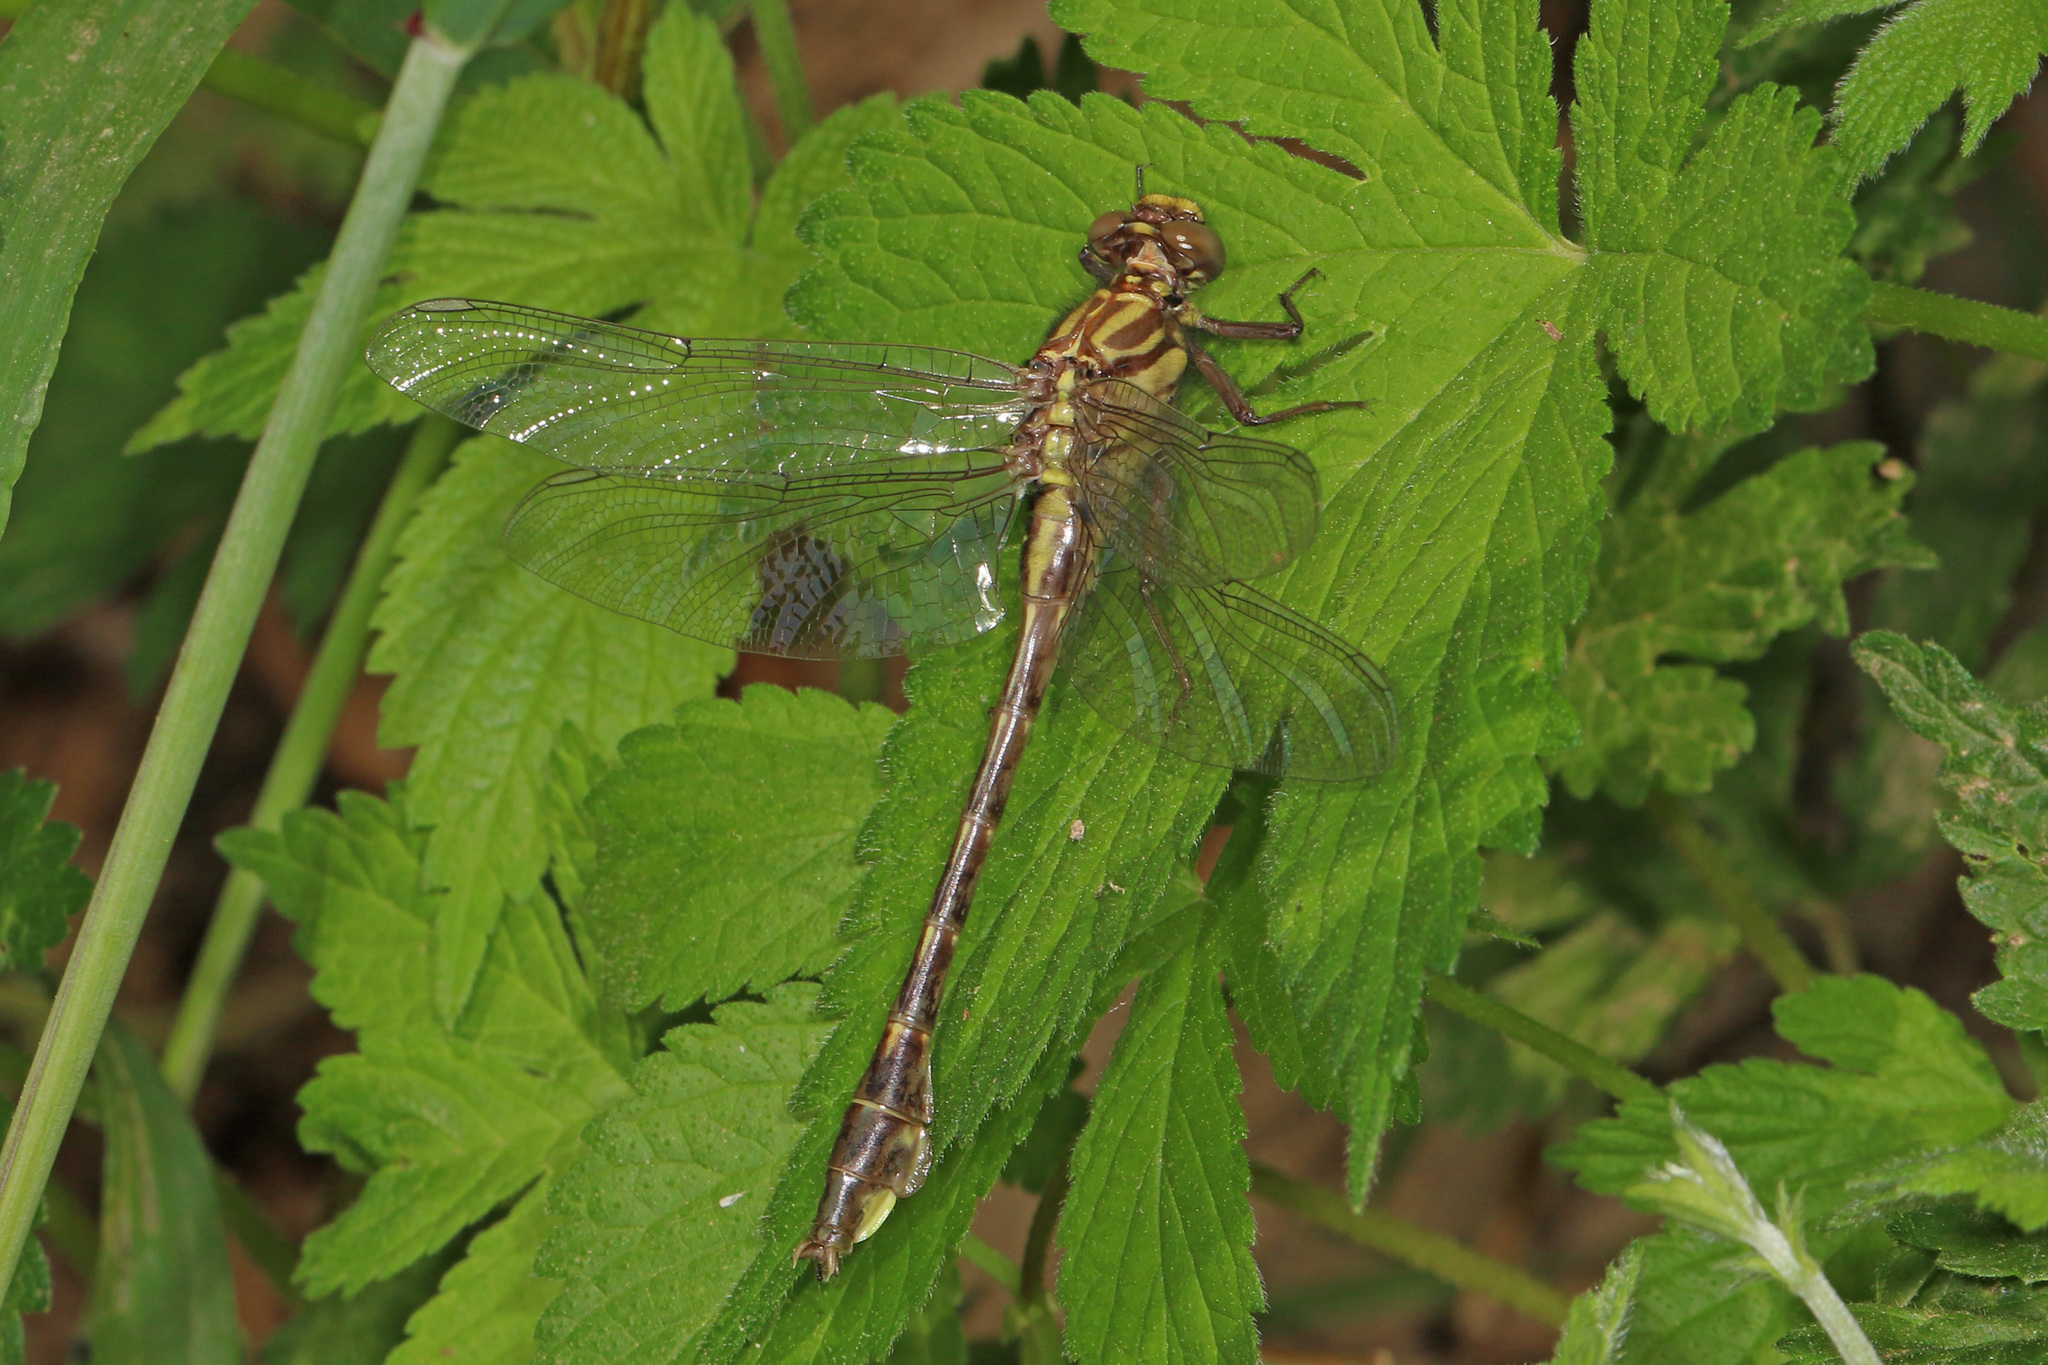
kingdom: Animalia
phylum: Arthropoda
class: Insecta
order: Odonata
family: Gomphidae
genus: Gomphurus
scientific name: Gomphurus vastus
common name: Cobra clubtail
